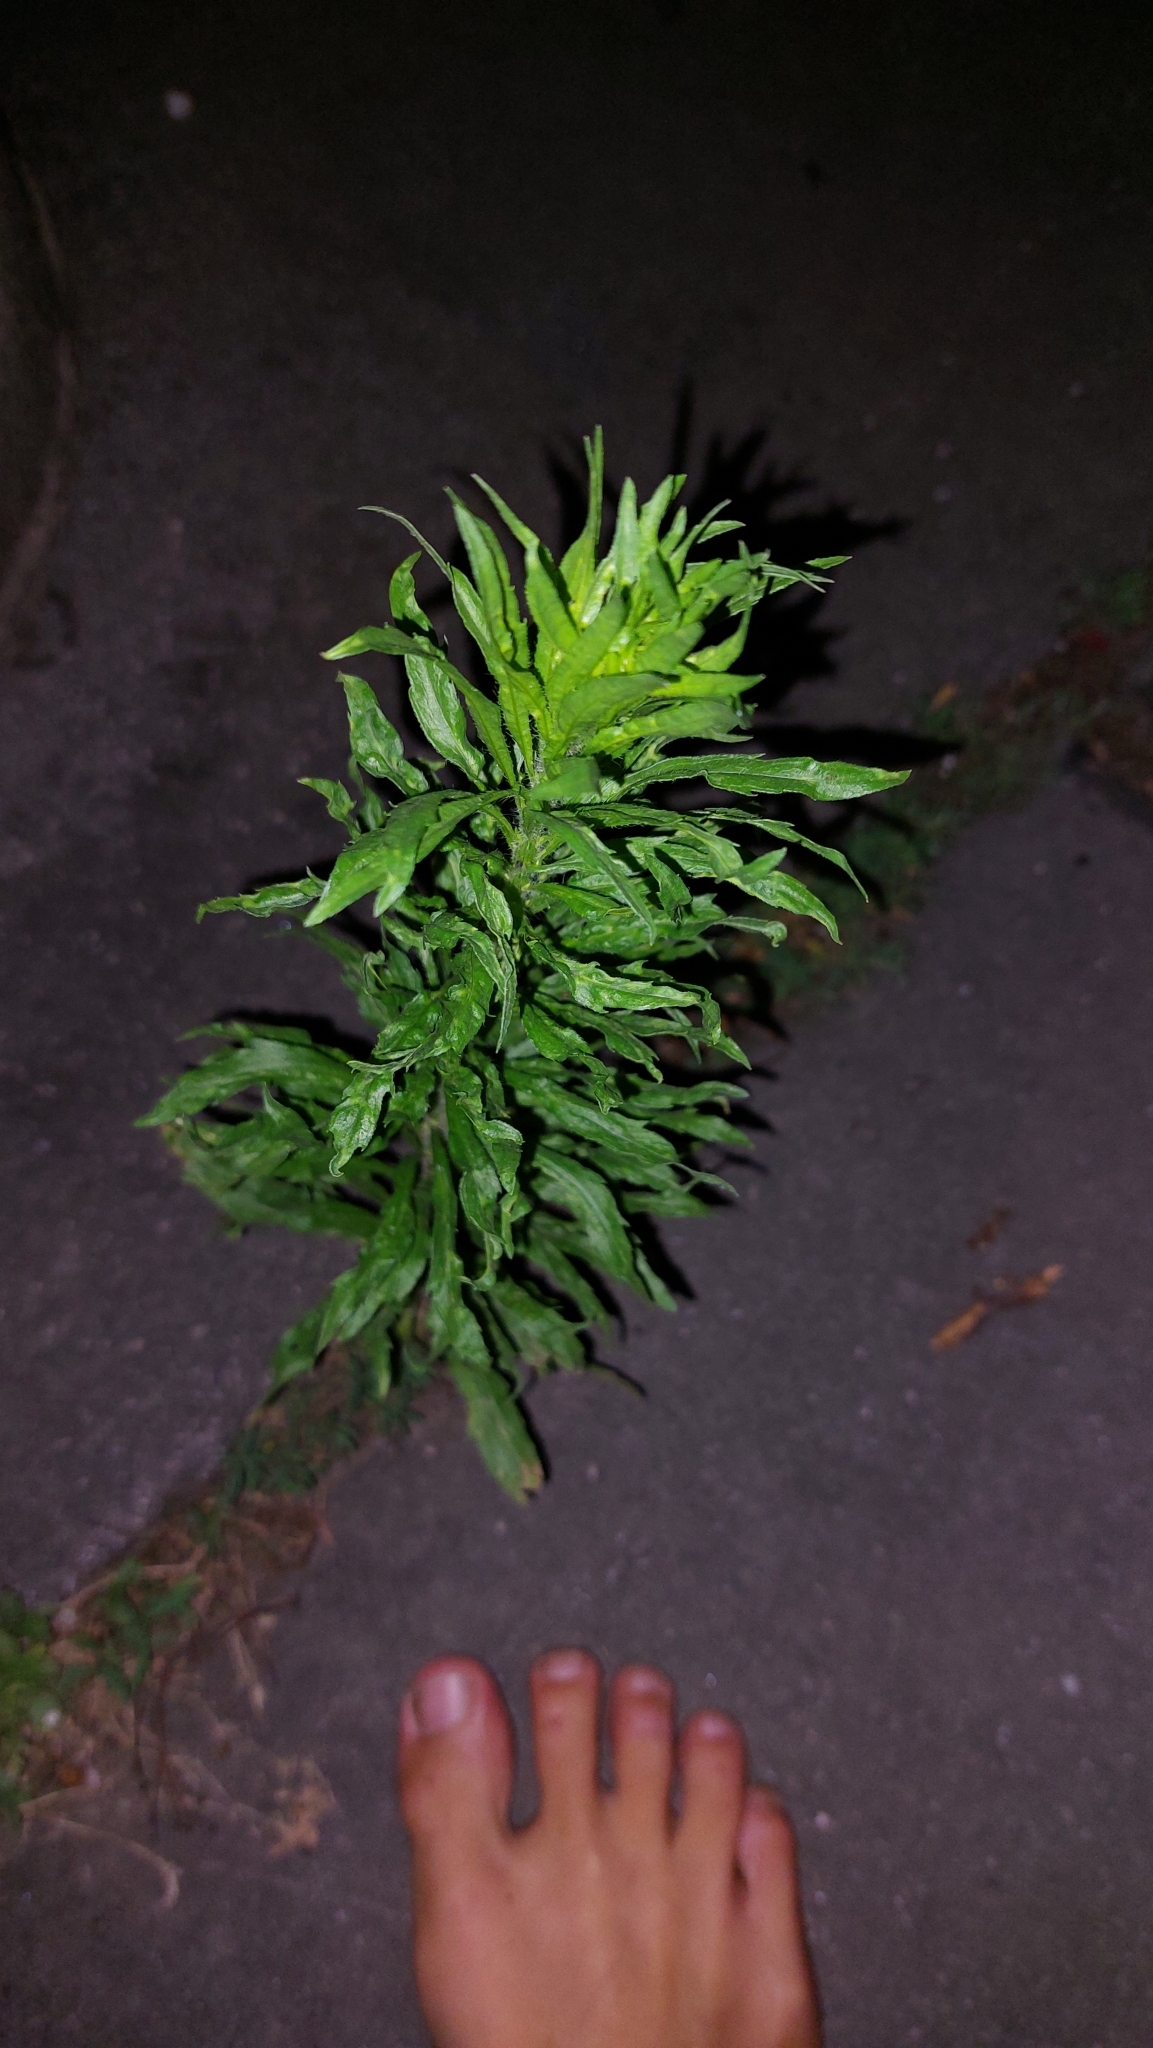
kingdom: Plantae
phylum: Tracheophyta
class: Magnoliopsida
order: Asterales
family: Asteraceae
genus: Erigeron
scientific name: Erigeron canadensis
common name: Canadian fleabane
